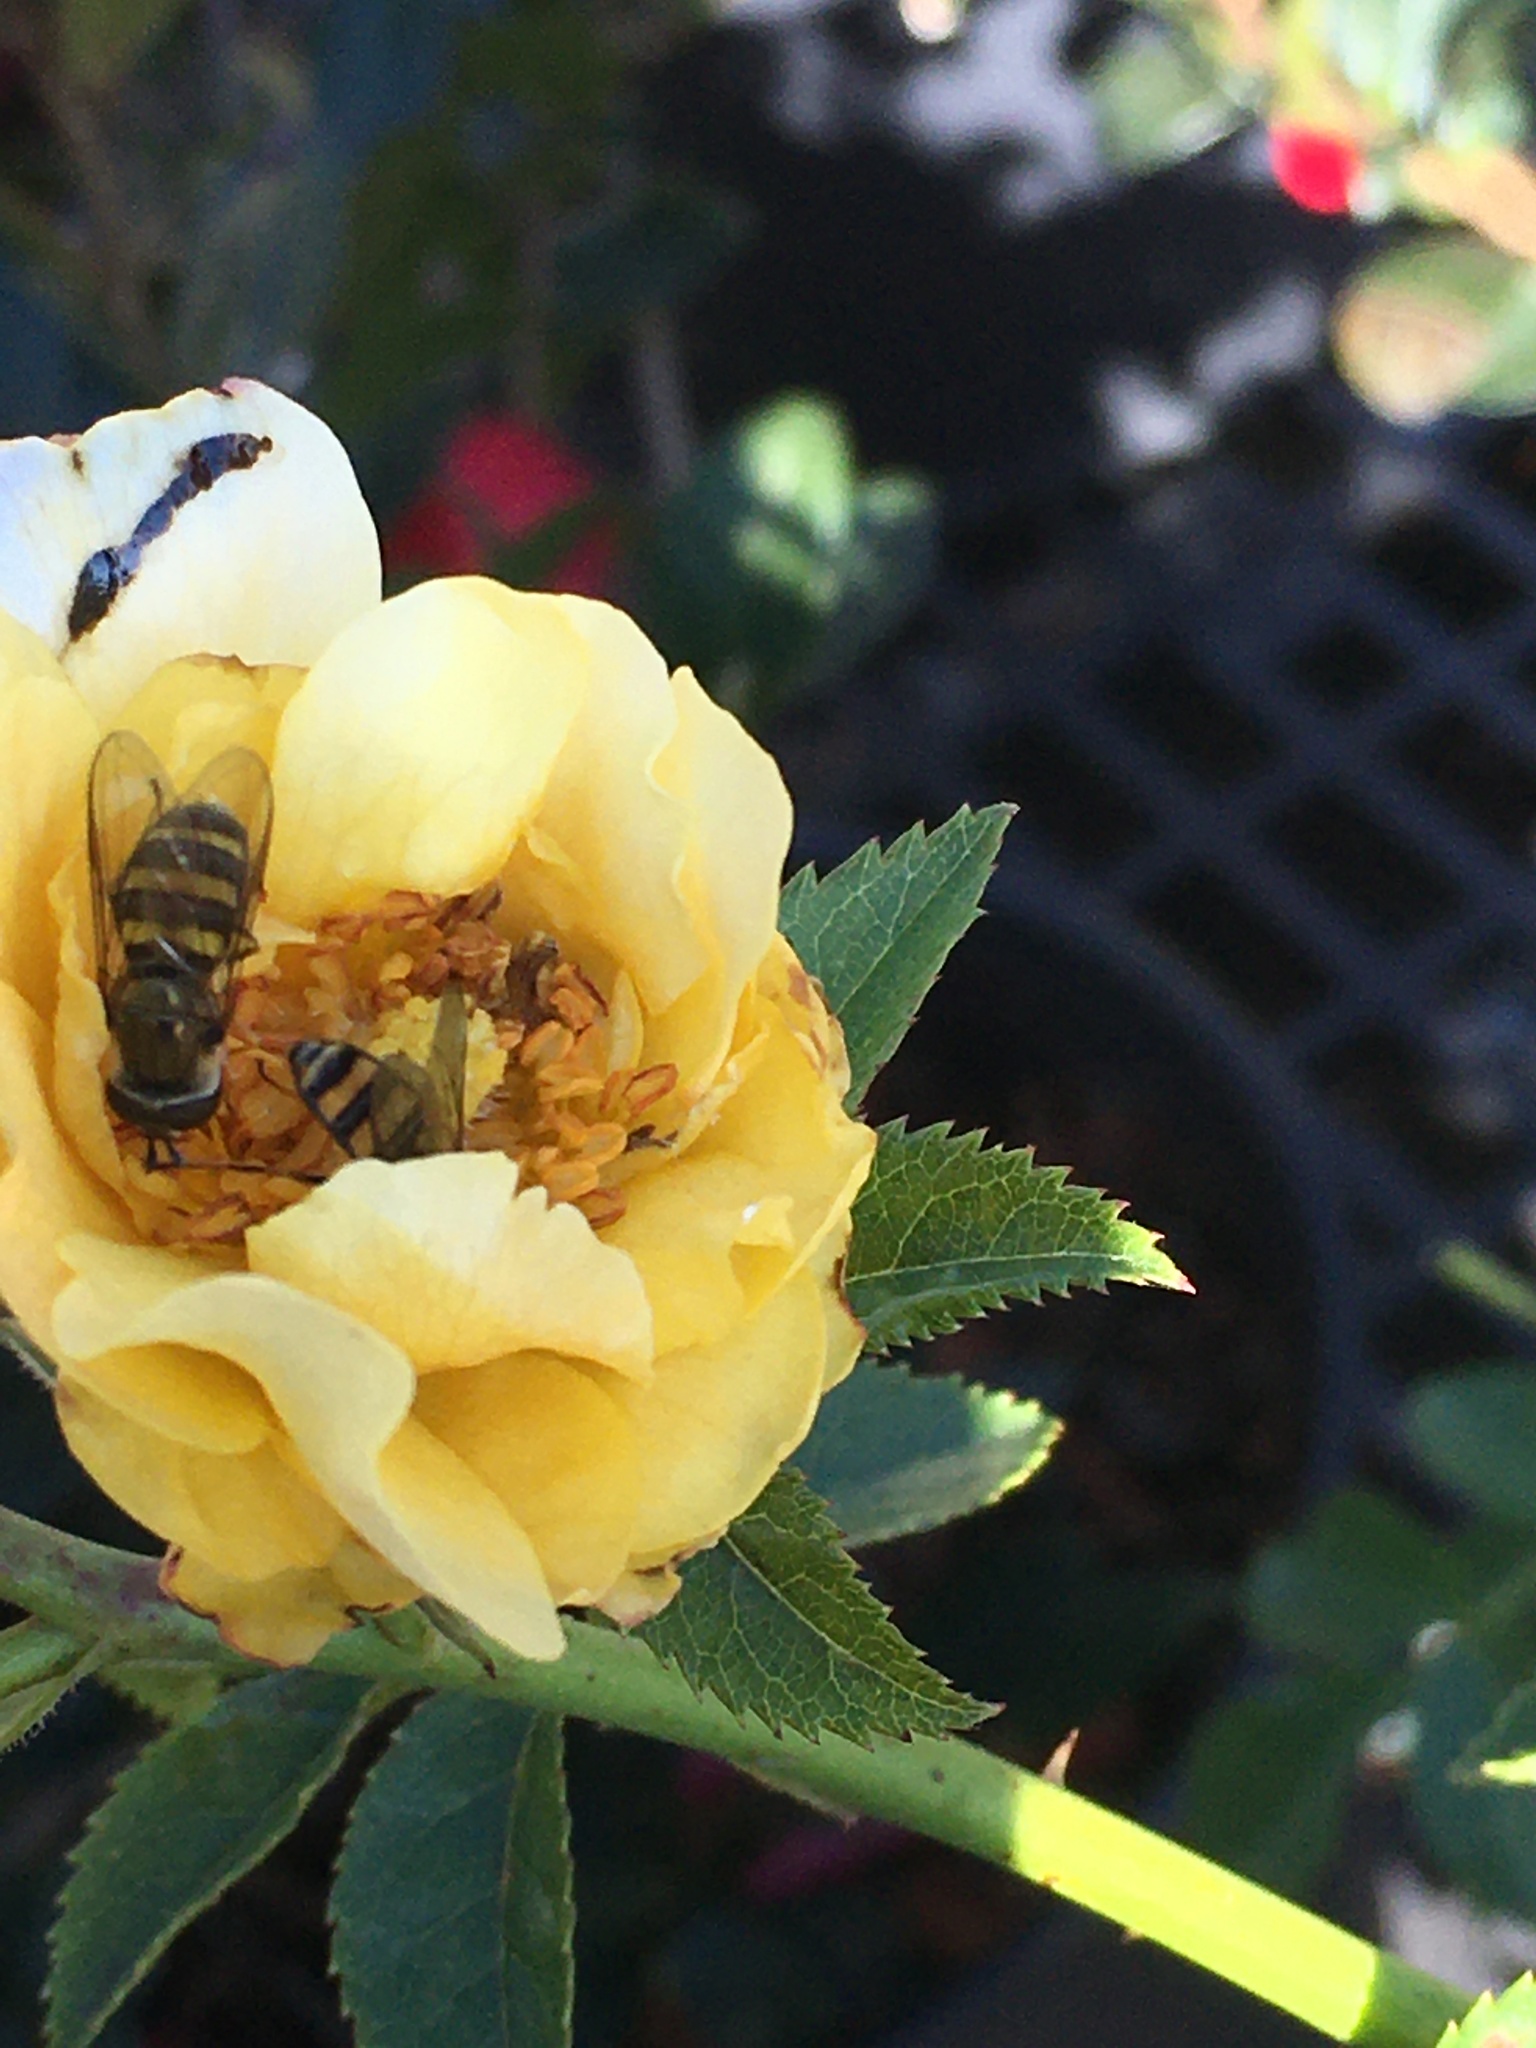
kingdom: Animalia
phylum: Arthropoda
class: Insecta
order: Diptera
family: Syrphidae
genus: Eupeodes
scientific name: Eupeodes
